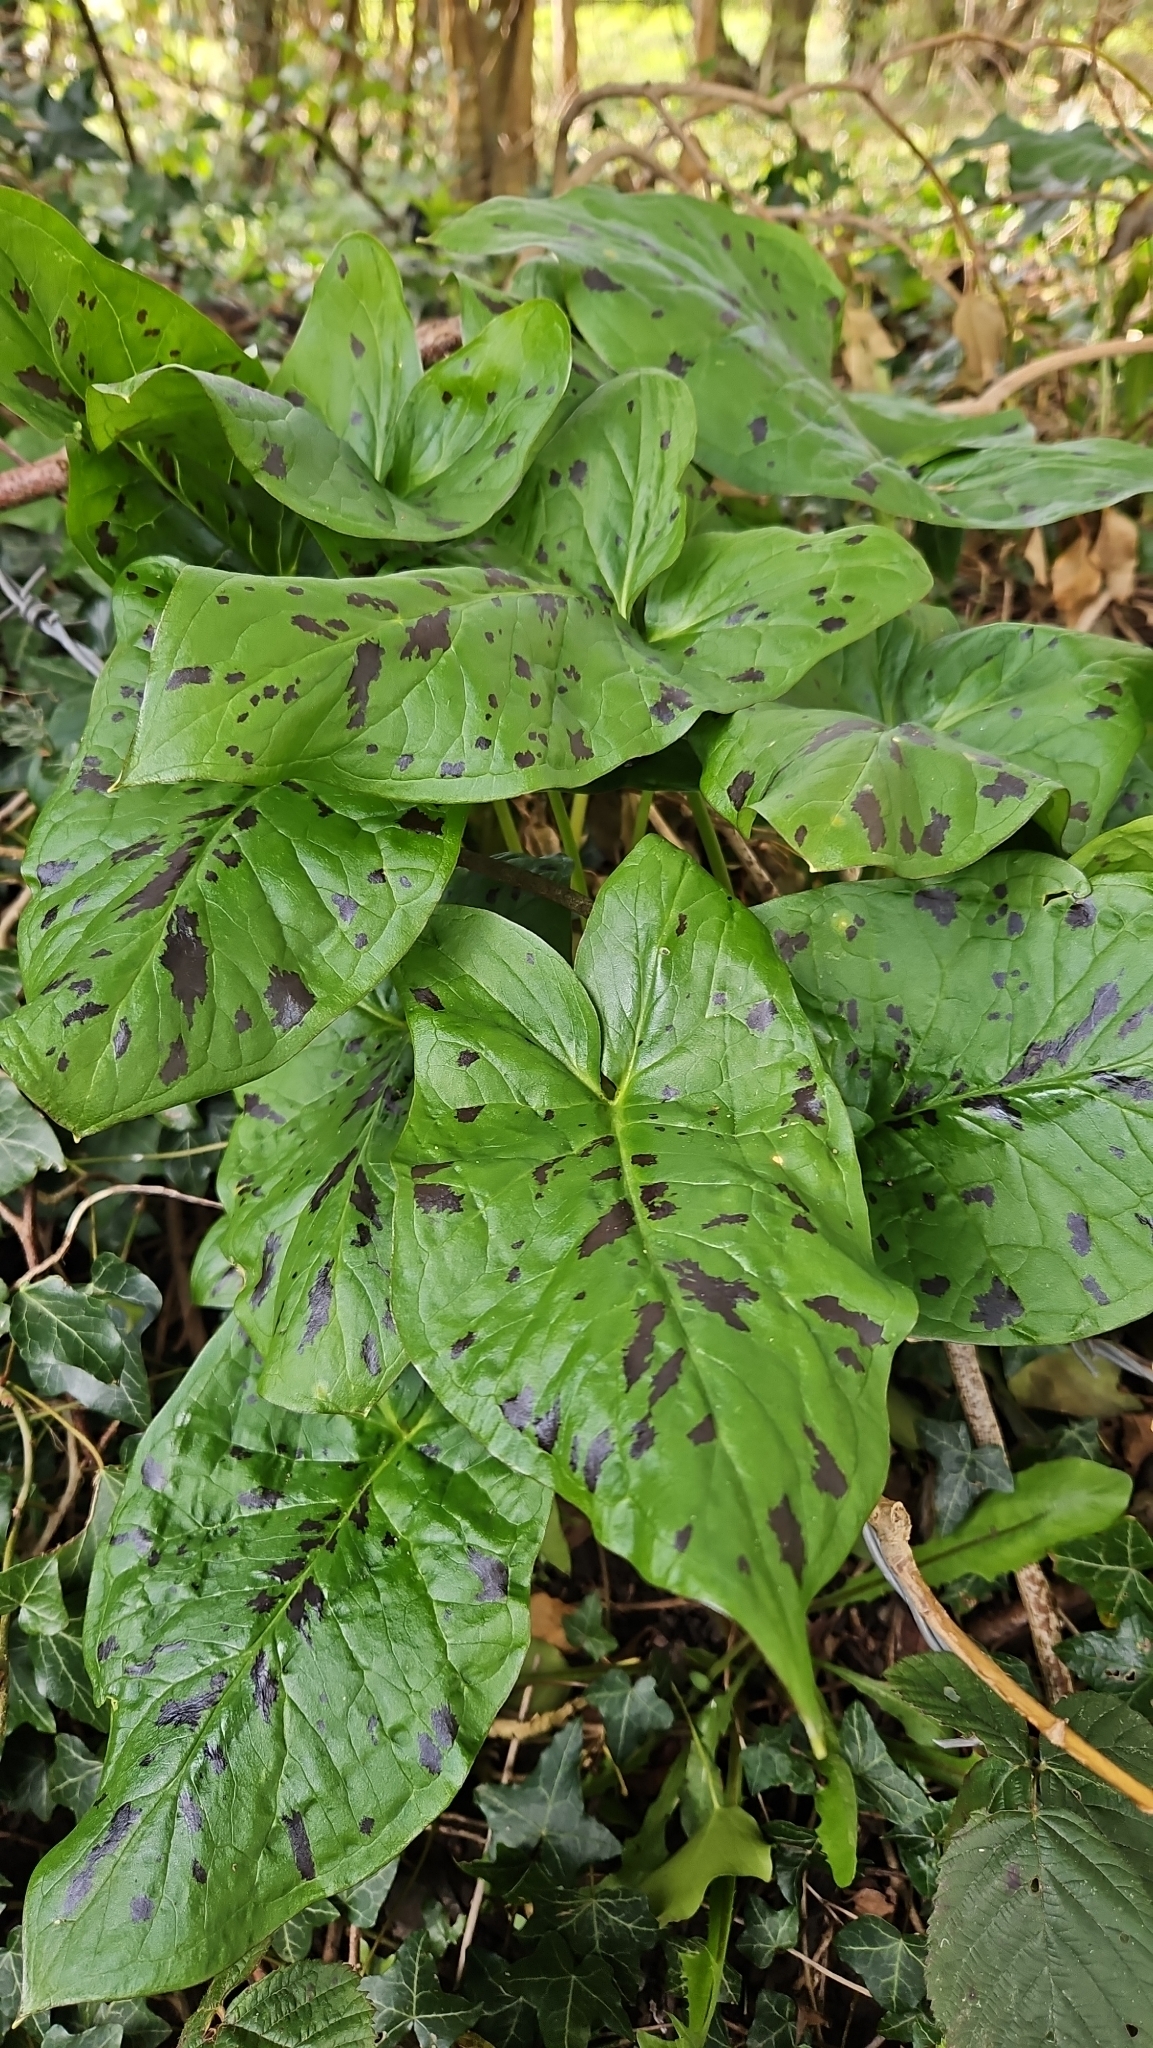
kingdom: Plantae
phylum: Tracheophyta
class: Liliopsida
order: Alismatales
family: Araceae
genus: Arum
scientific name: Arum maculatum
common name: Lords-and-ladies
